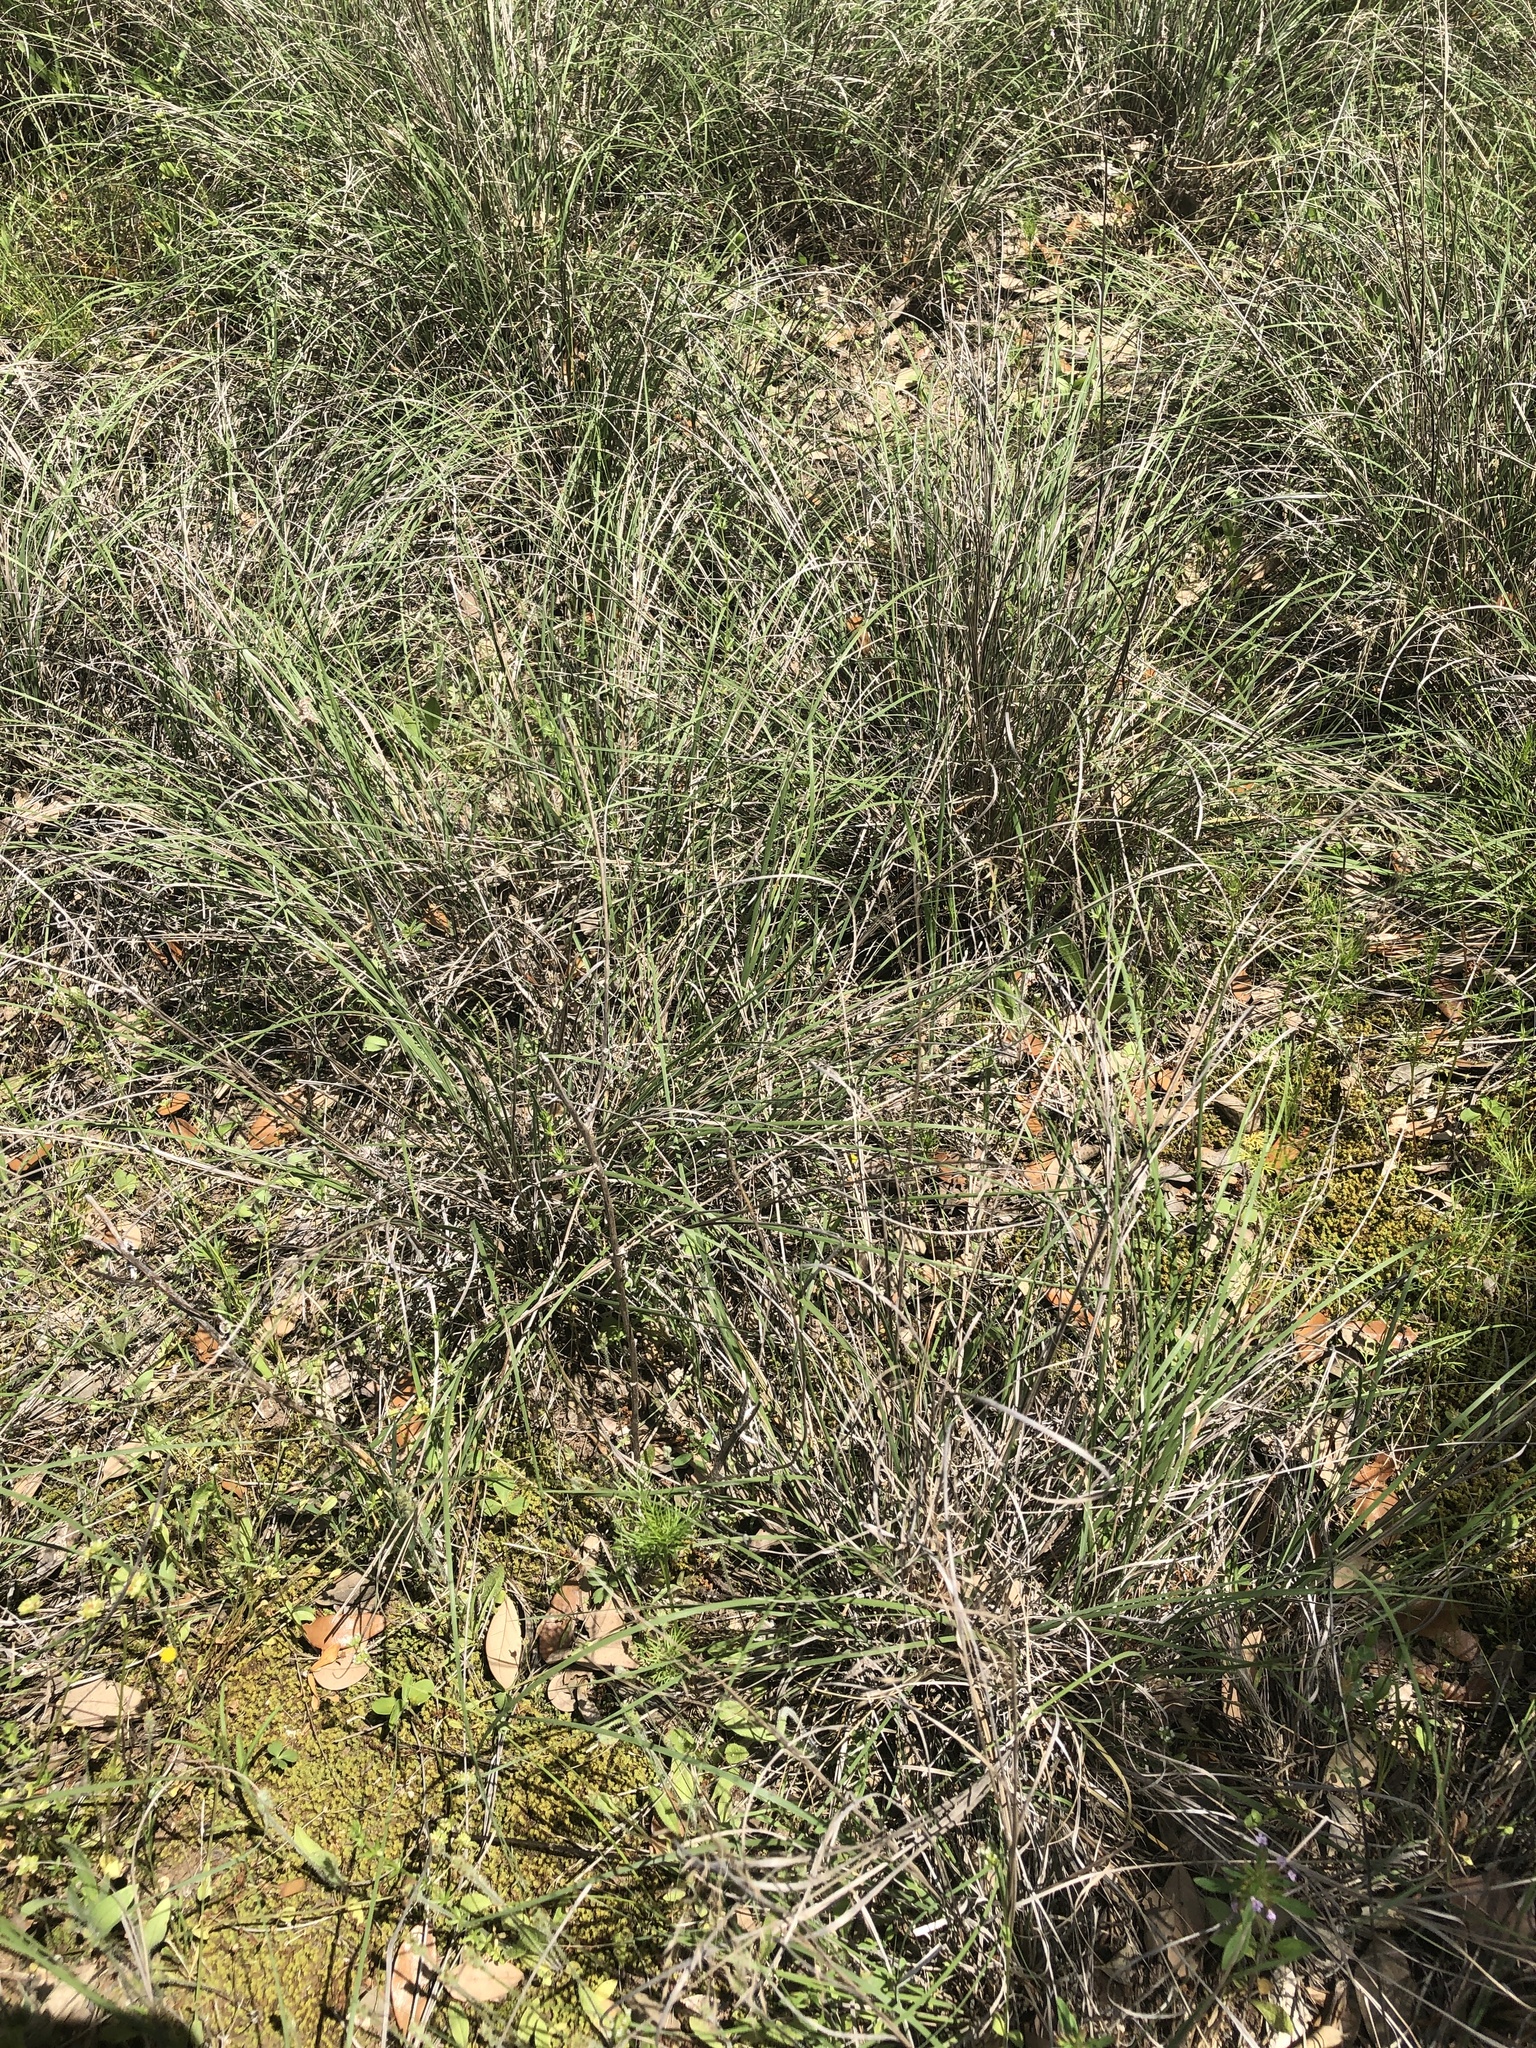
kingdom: Plantae
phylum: Tracheophyta
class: Liliopsida
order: Poales
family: Poaceae
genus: Muhlenbergia
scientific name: Muhlenbergia reverchonii
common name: Seep muhly
